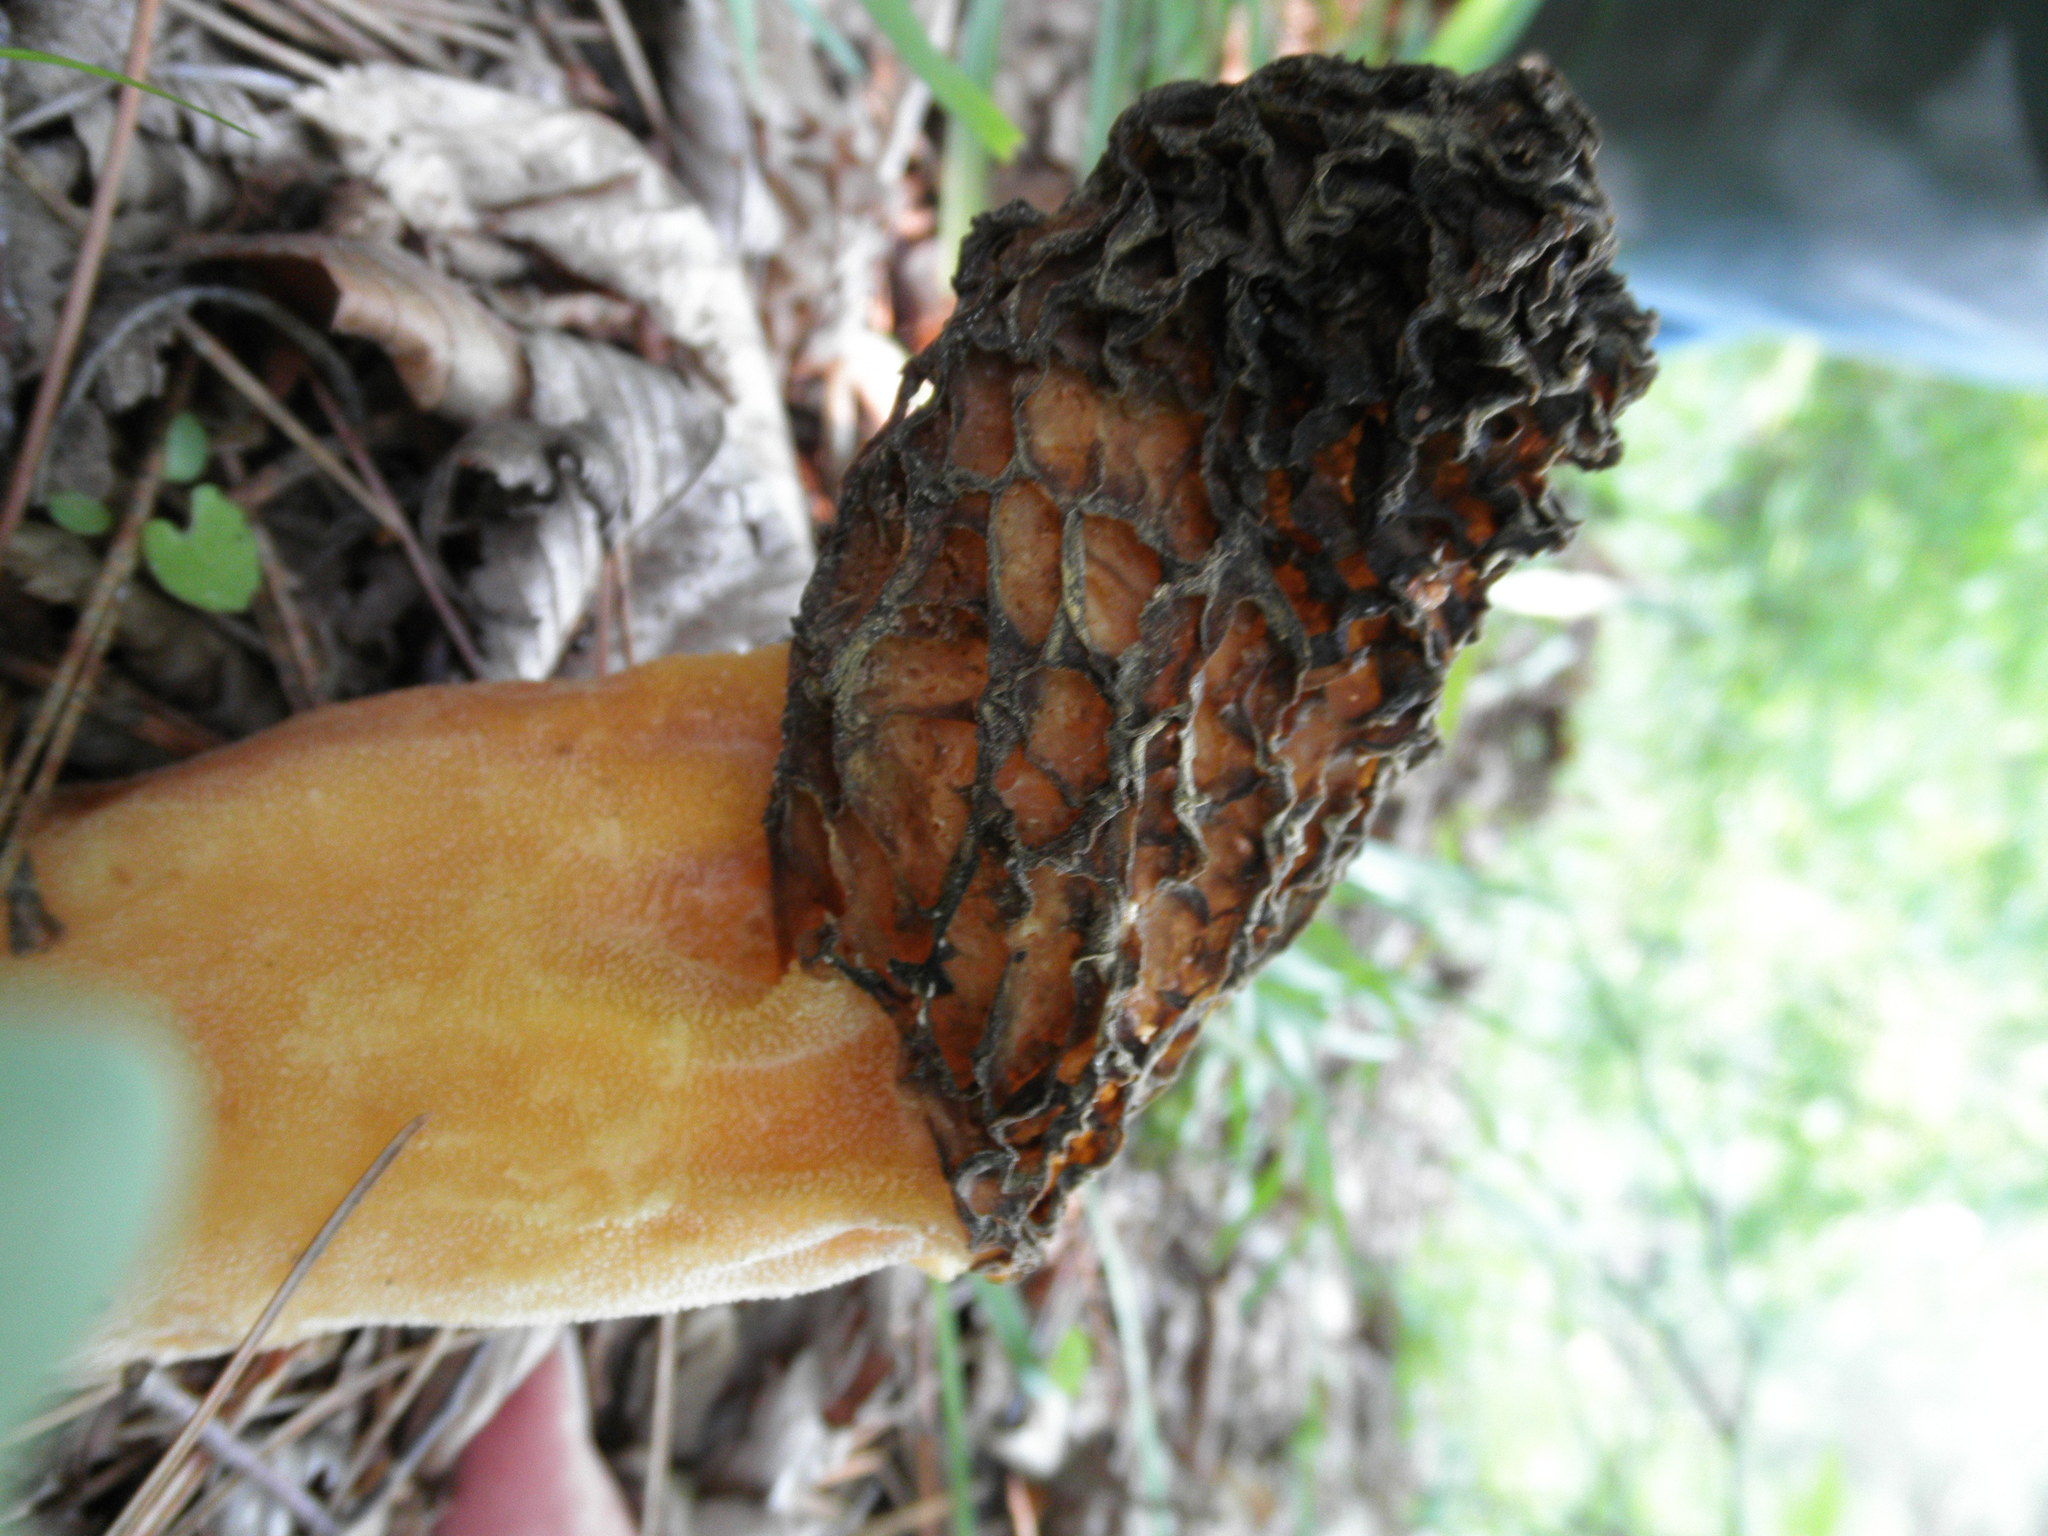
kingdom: Fungi
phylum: Ascomycota
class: Pezizomycetes
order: Pezizales
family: Morchellaceae
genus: Morchella
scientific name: Morchella angusticeps
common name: Black morel
